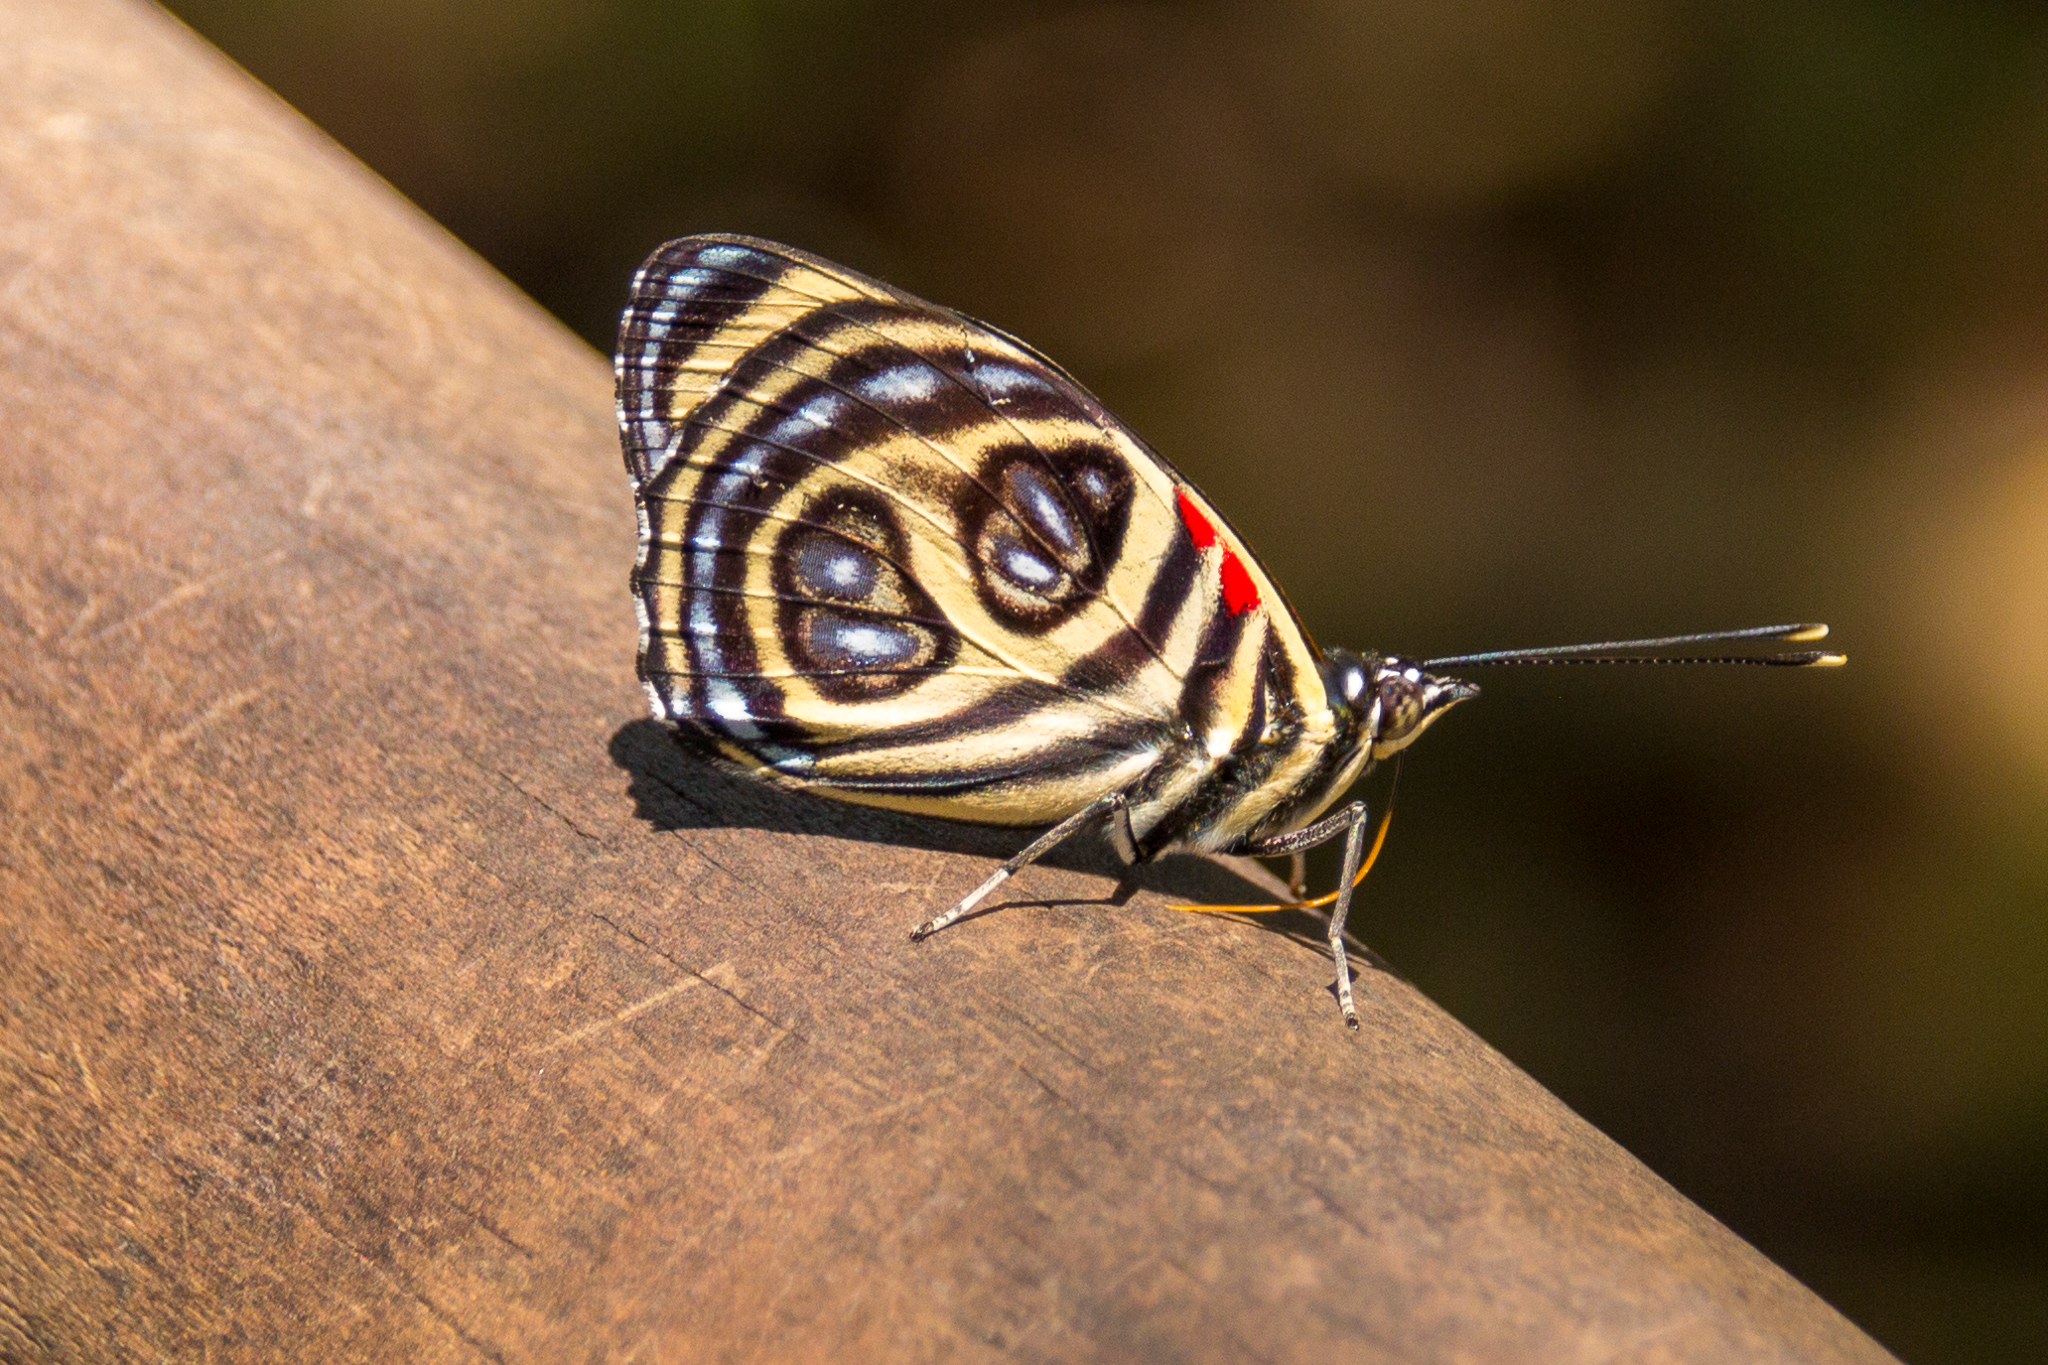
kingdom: Animalia
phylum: Arthropoda
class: Insecta
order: Lepidoptera
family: Nymphalidae
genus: Catagramma
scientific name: Catagramma pygas
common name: Godart's numberwing
